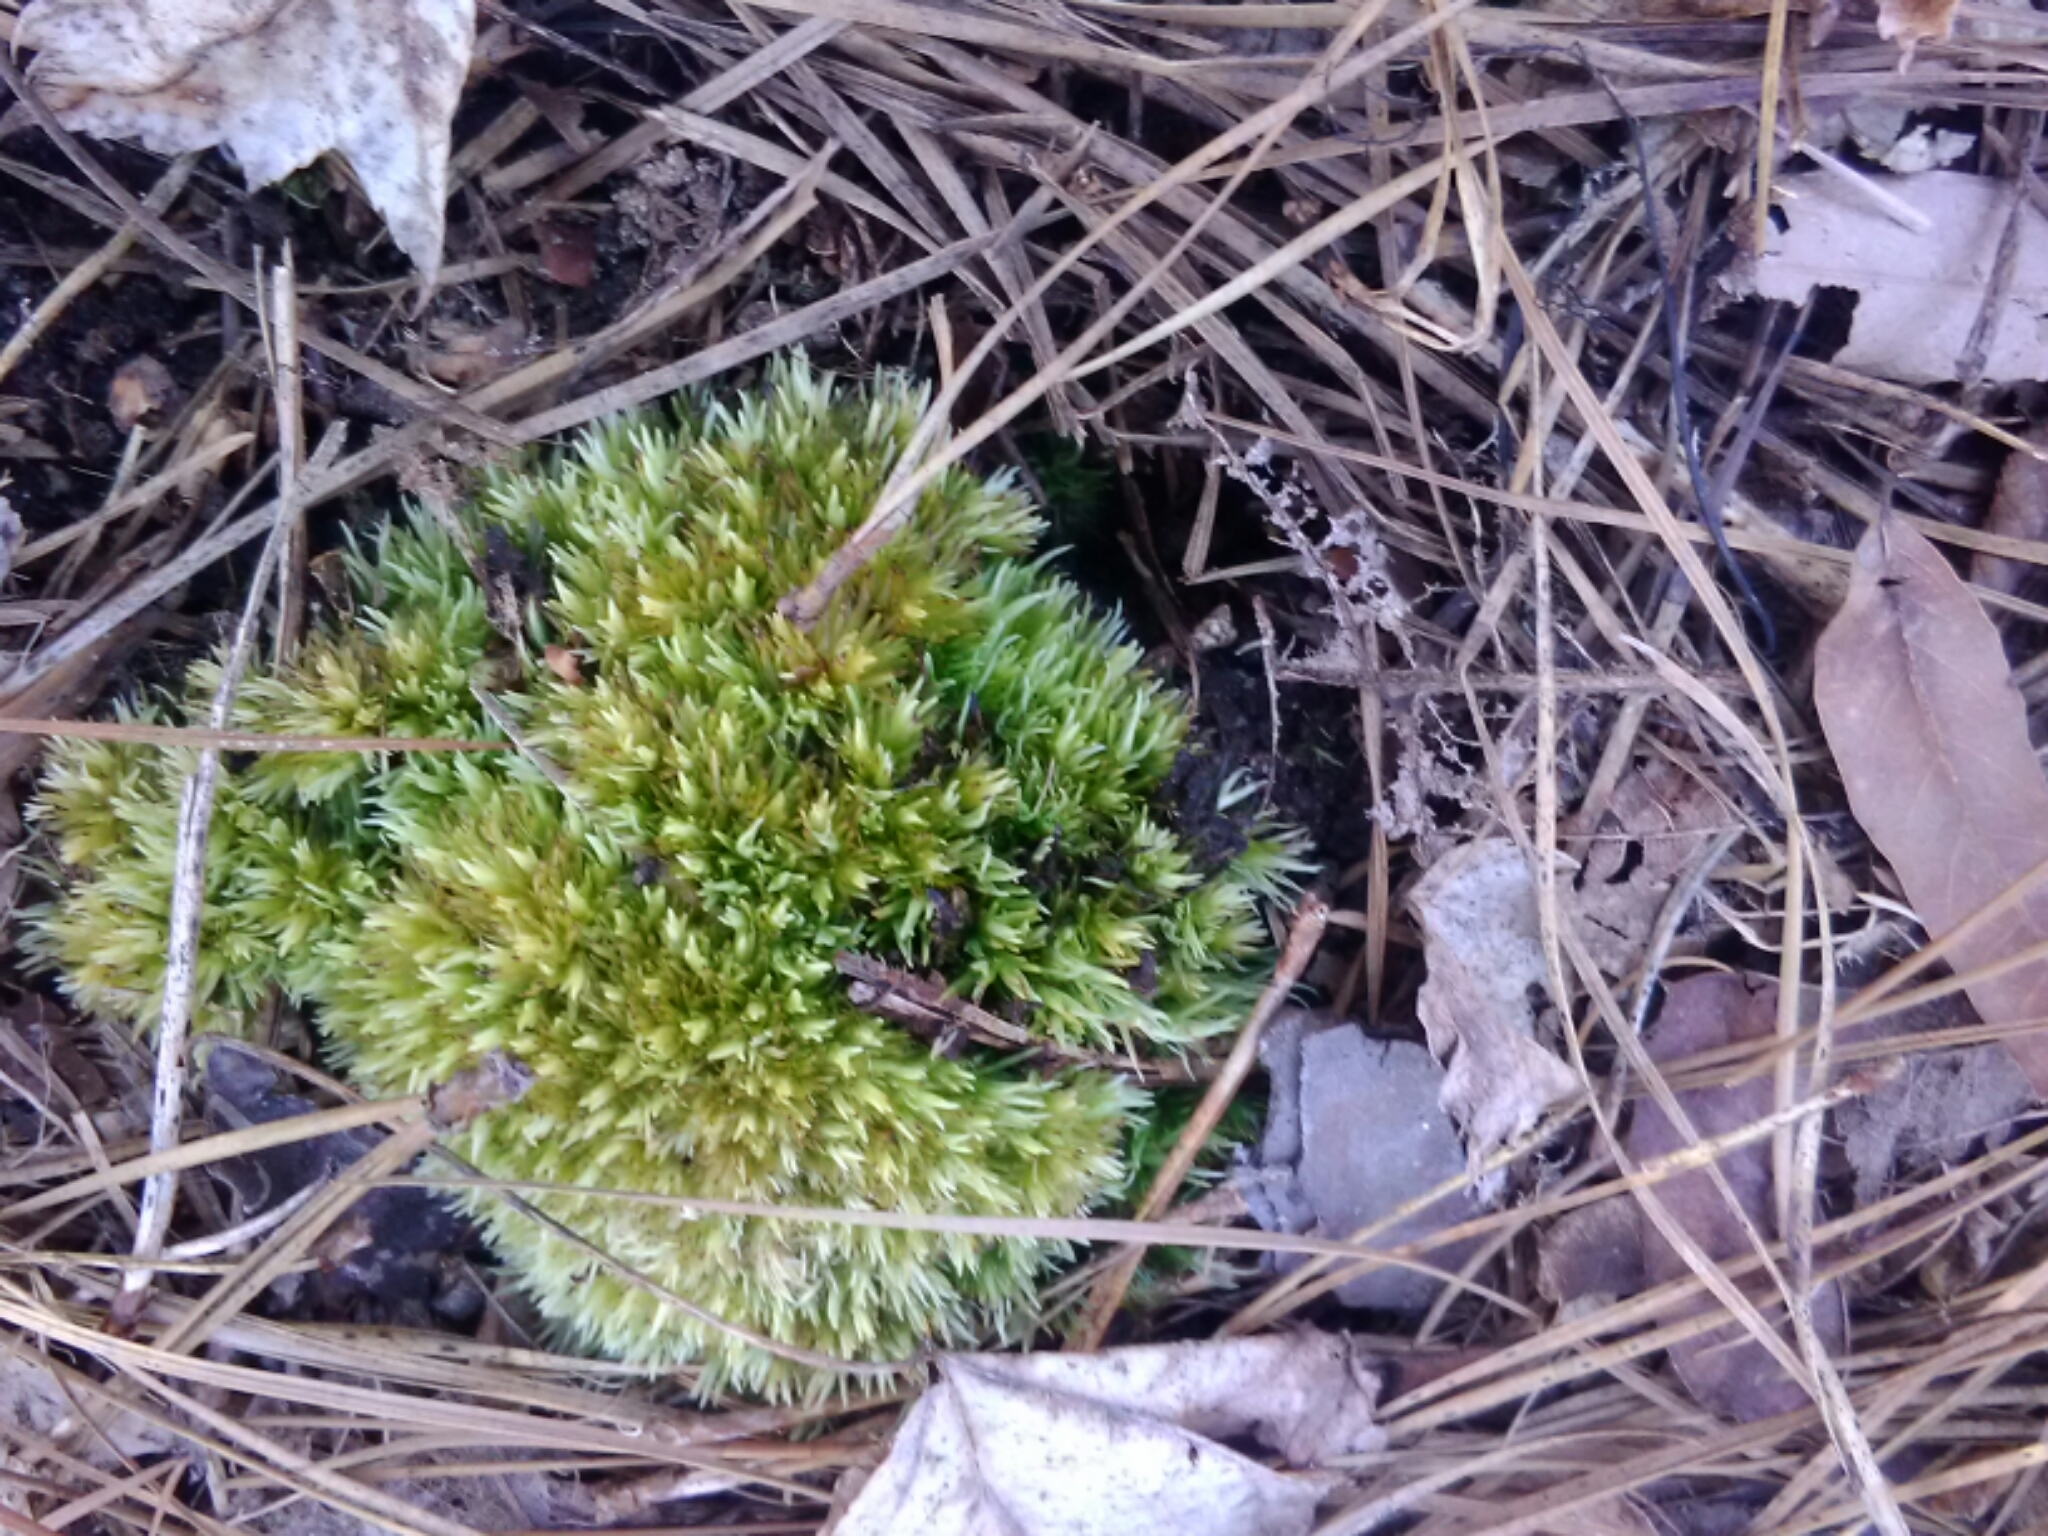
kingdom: Plantae
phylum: Bryophyta
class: Bryopsida
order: Dicranales
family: Leucobryaceae
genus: Leucobryum
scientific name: Leucobryum glaucum
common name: Large white-moss
